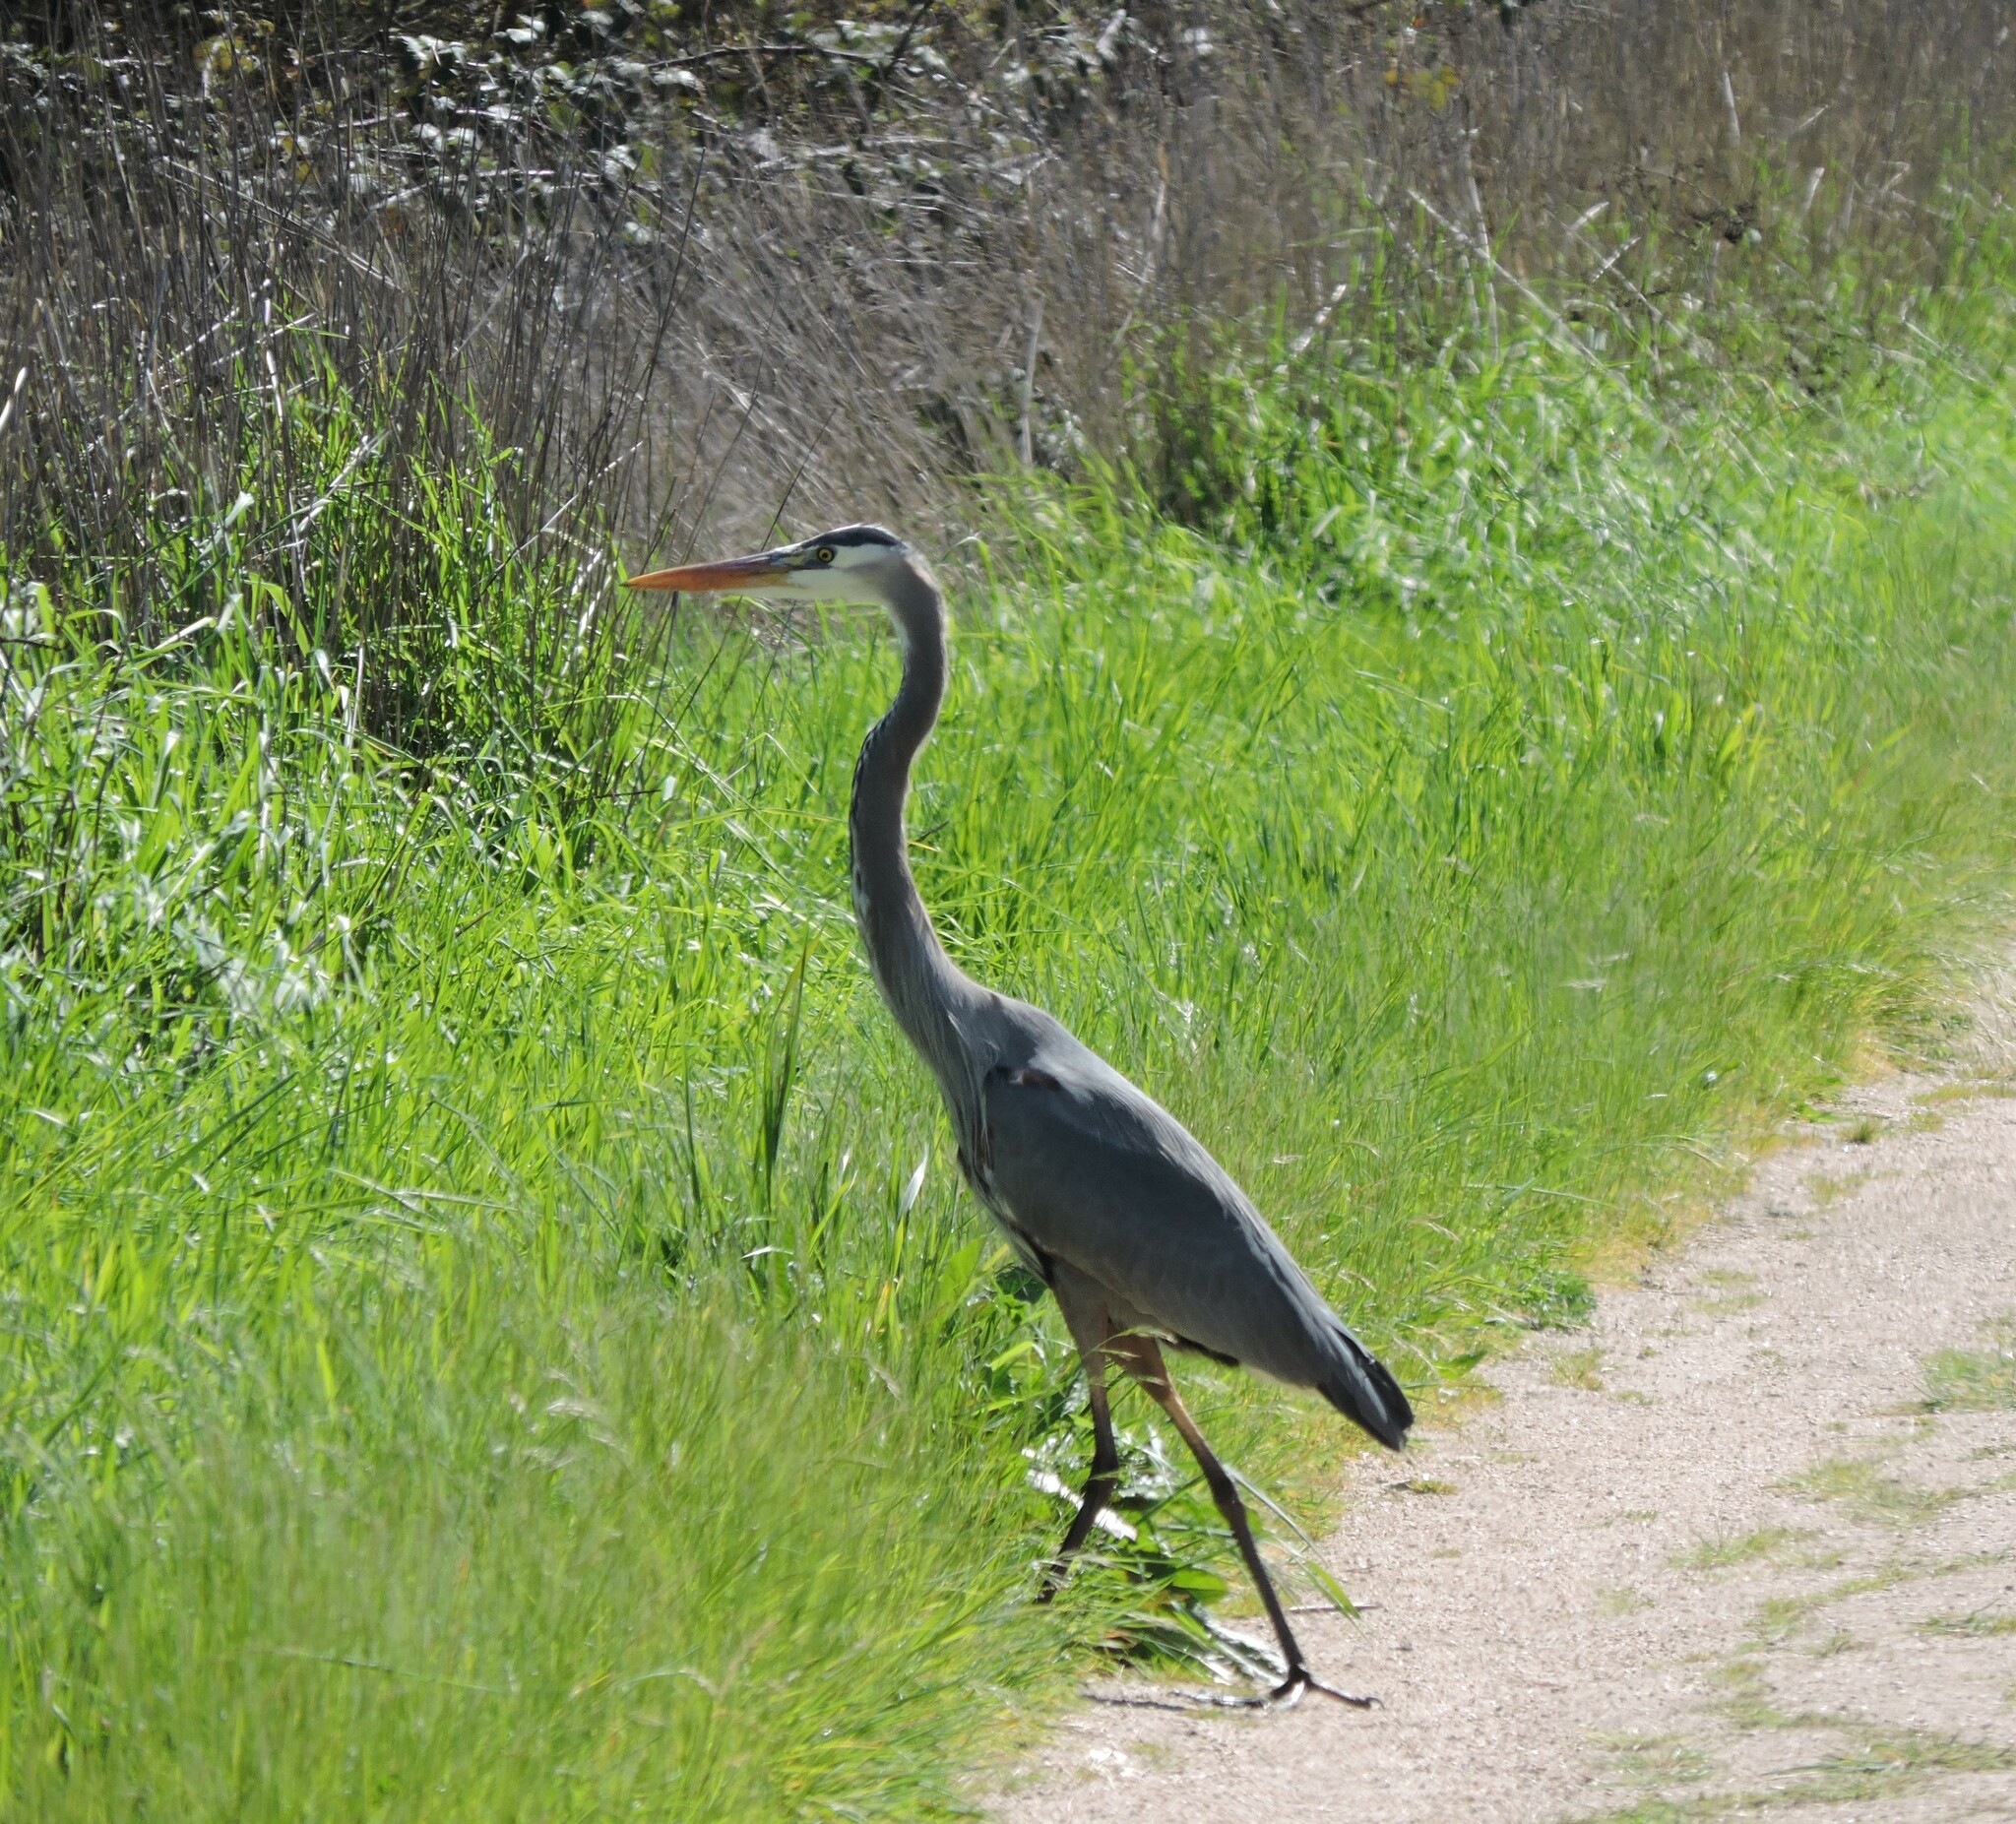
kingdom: Animalia
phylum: Chordata
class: Aves
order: Pelecaniformes
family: Ardeidae
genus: Ardea
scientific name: Ardea herodias
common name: Great blue heron
